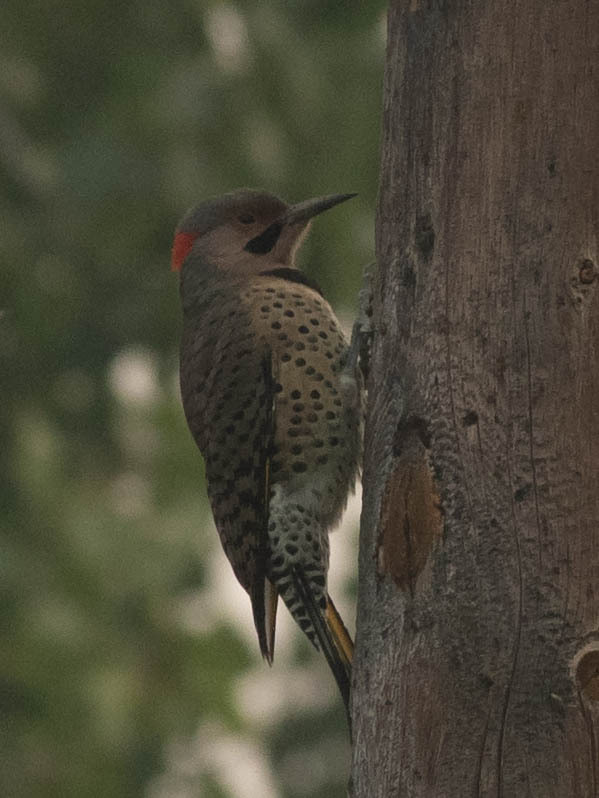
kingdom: Animalia
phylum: Chordata
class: Aves
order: Piciformes
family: Picidae
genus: Colaptes
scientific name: Colaptes auratus
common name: Northern flicker
